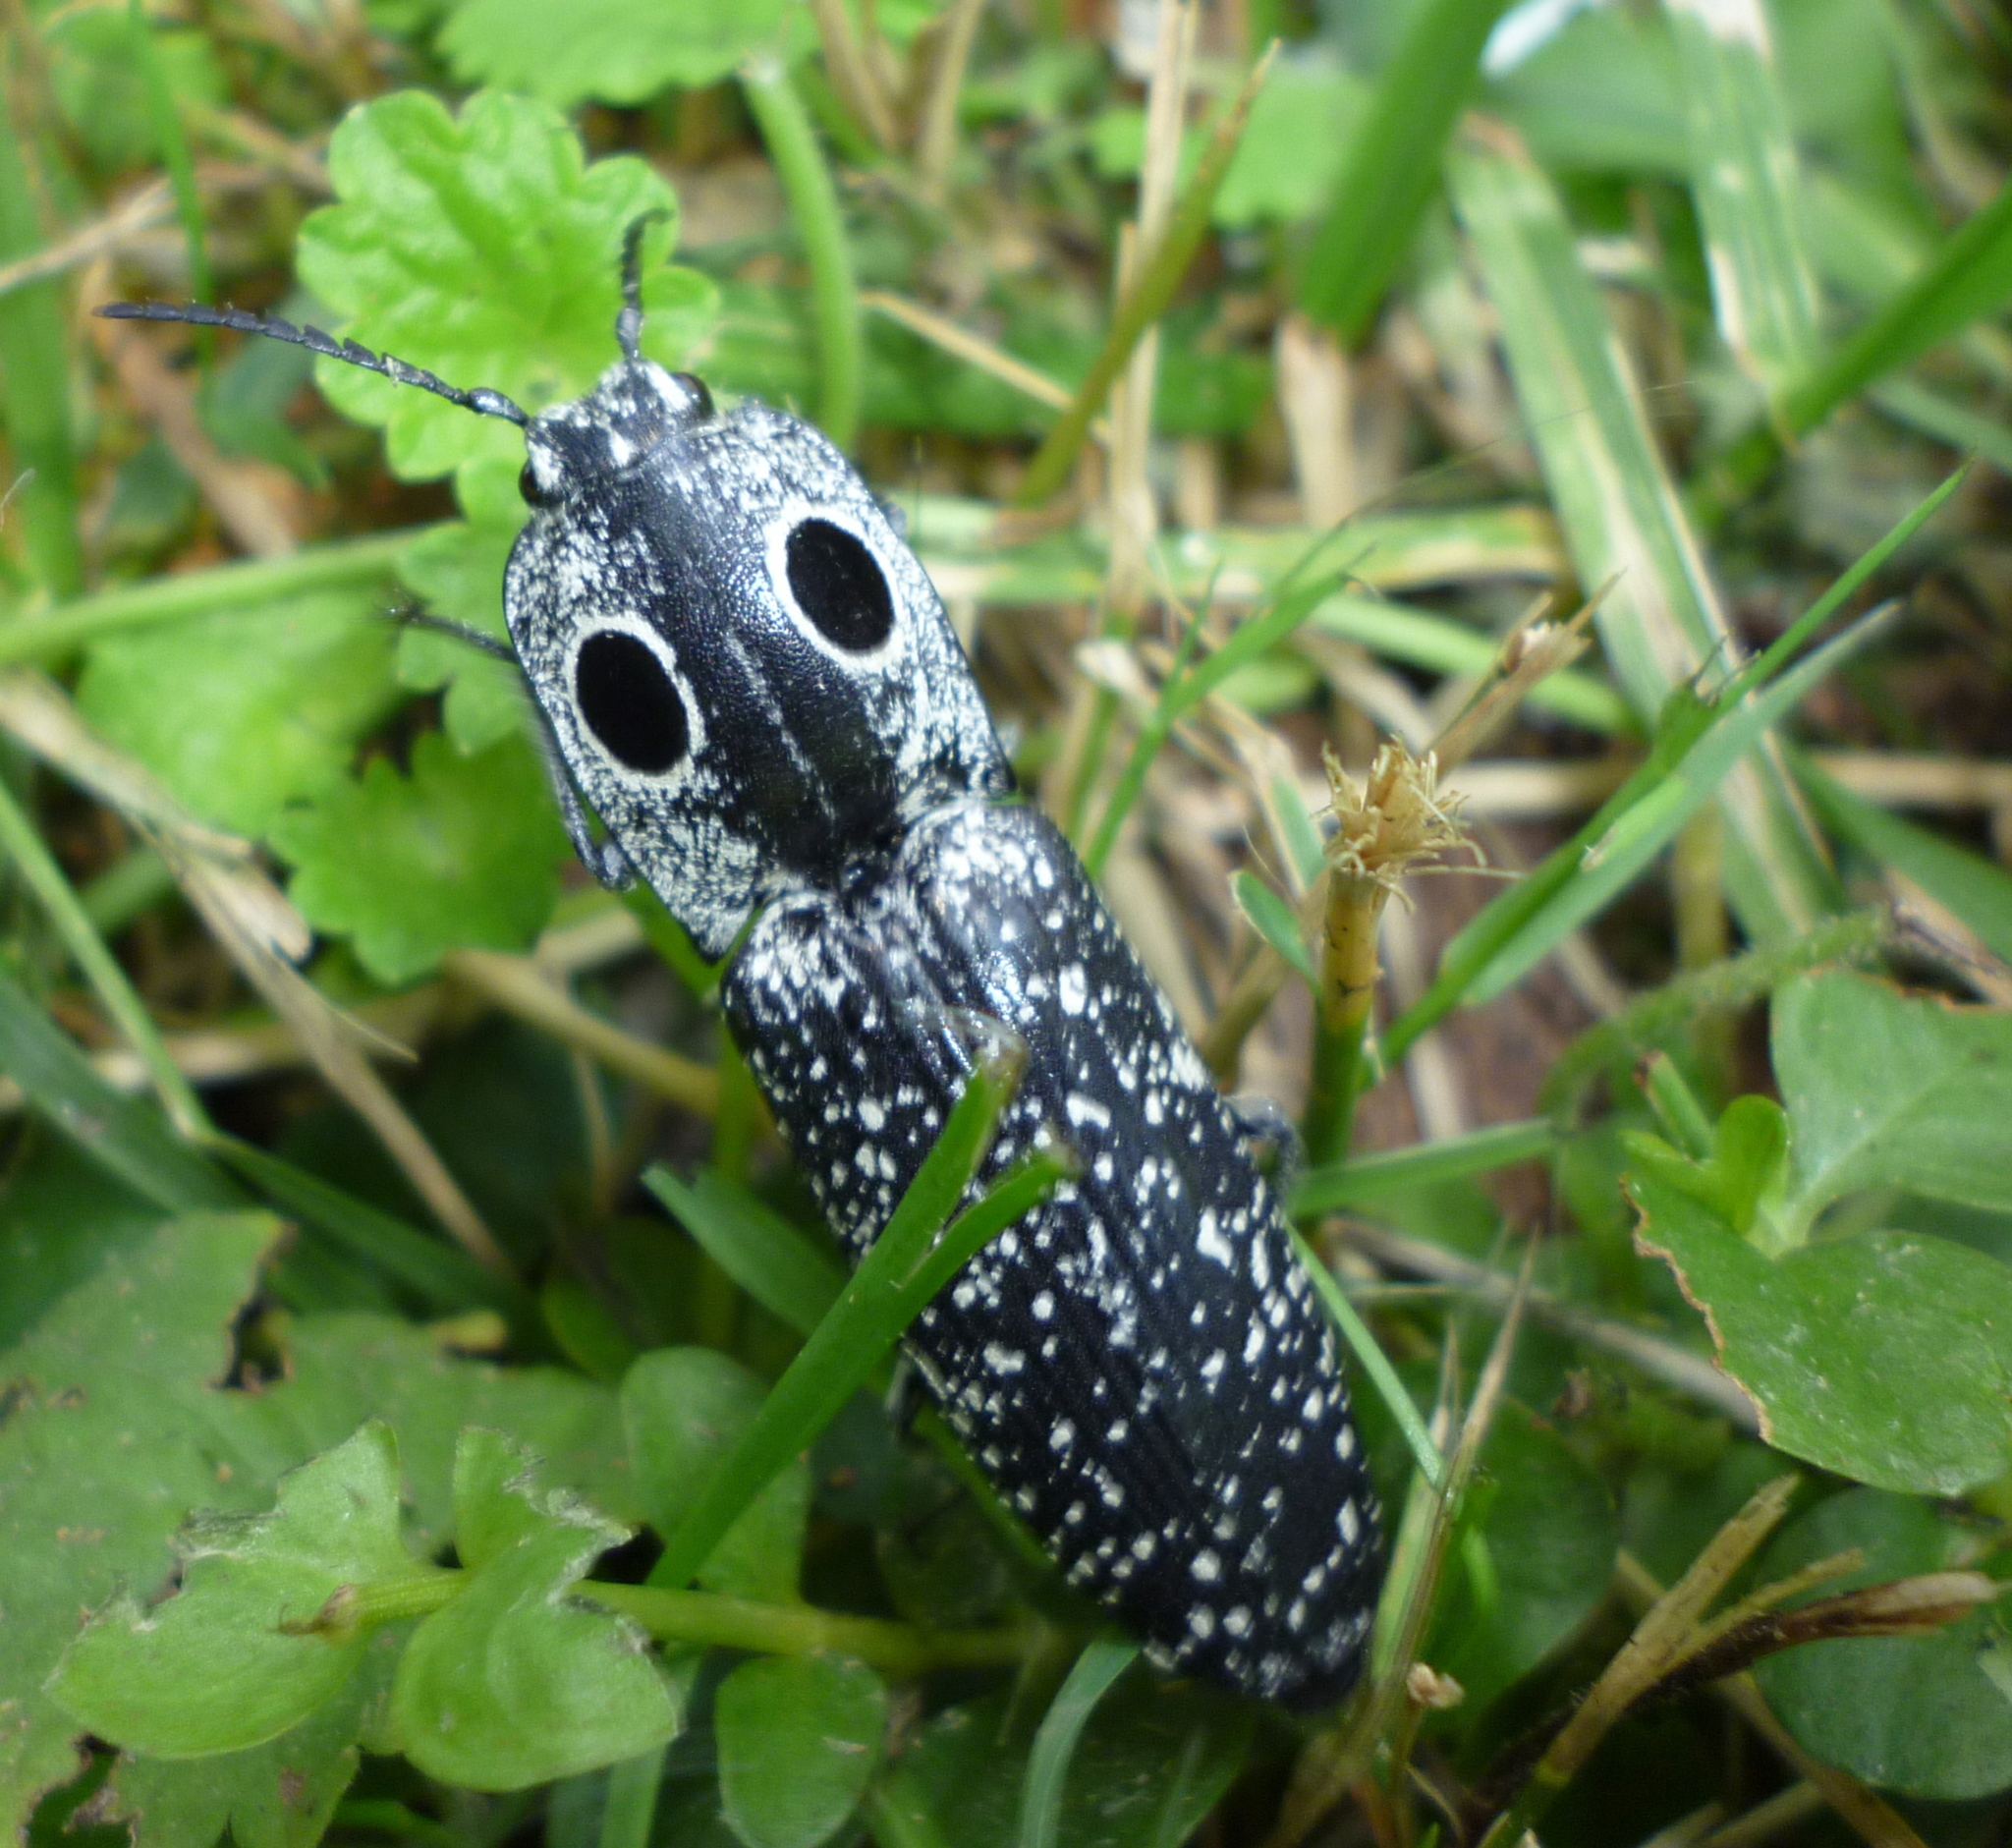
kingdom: Animalia
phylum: Arthropoda
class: Insecta
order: Coleoptera
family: Elateridae
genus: Alaus
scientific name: Alaus oculatus
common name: Eastern eyed click beetle
